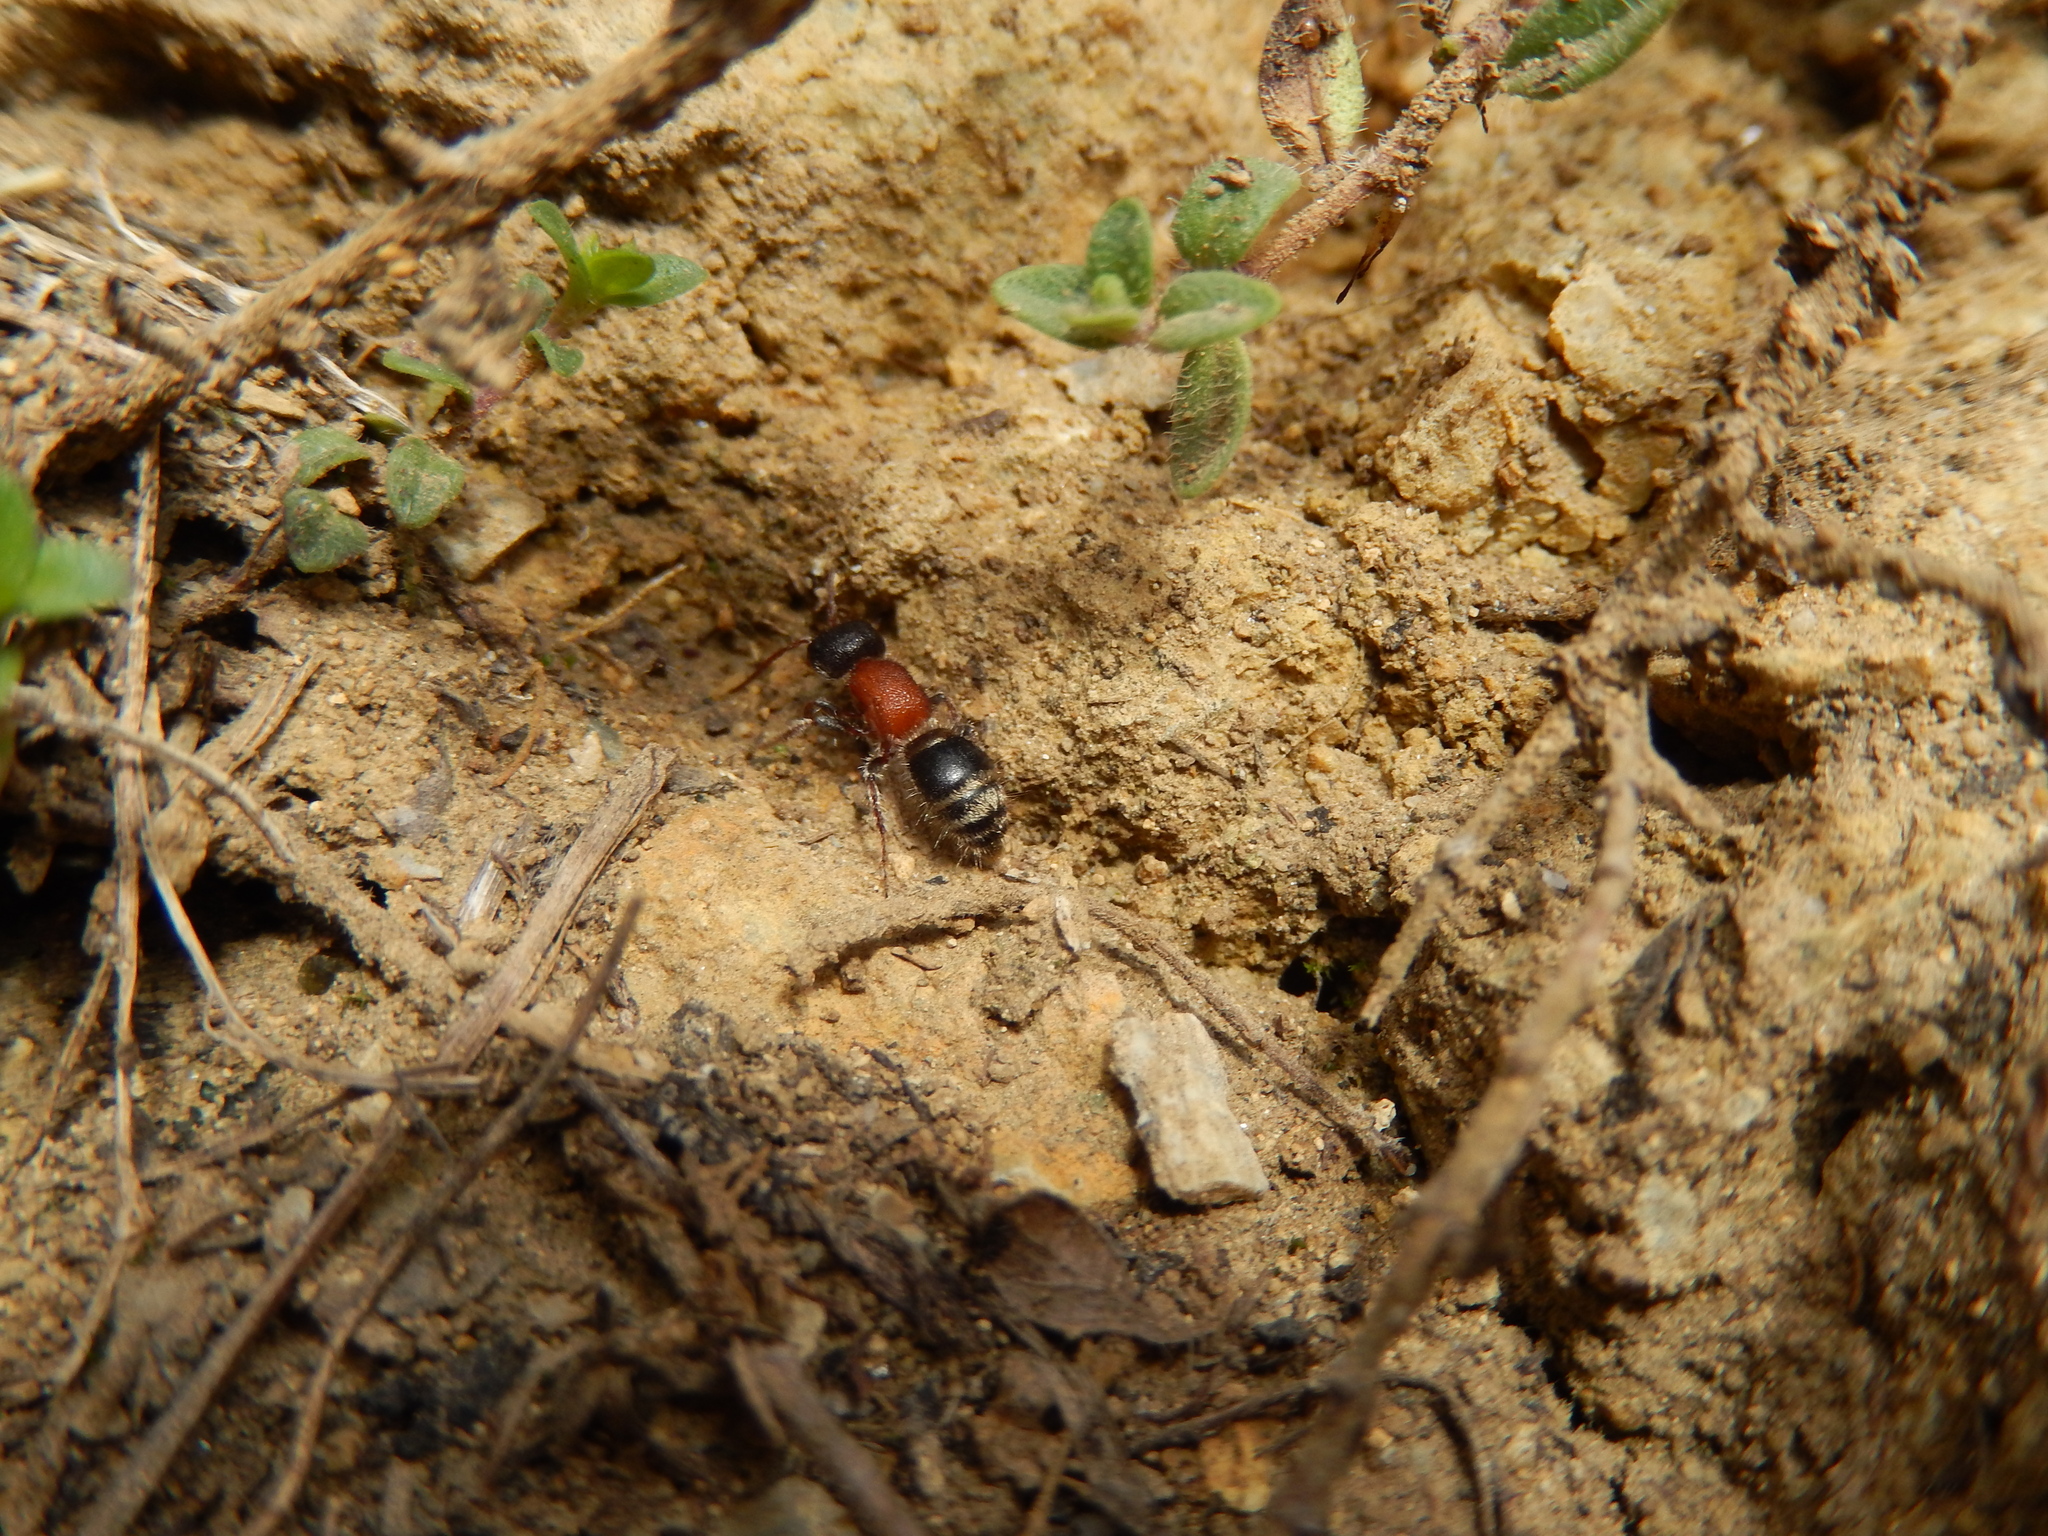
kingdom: Animalia
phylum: Arthropoda
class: Insecta
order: Hymenoptera
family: Mutillidae
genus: Myrmilla
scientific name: Myrmilla calva
